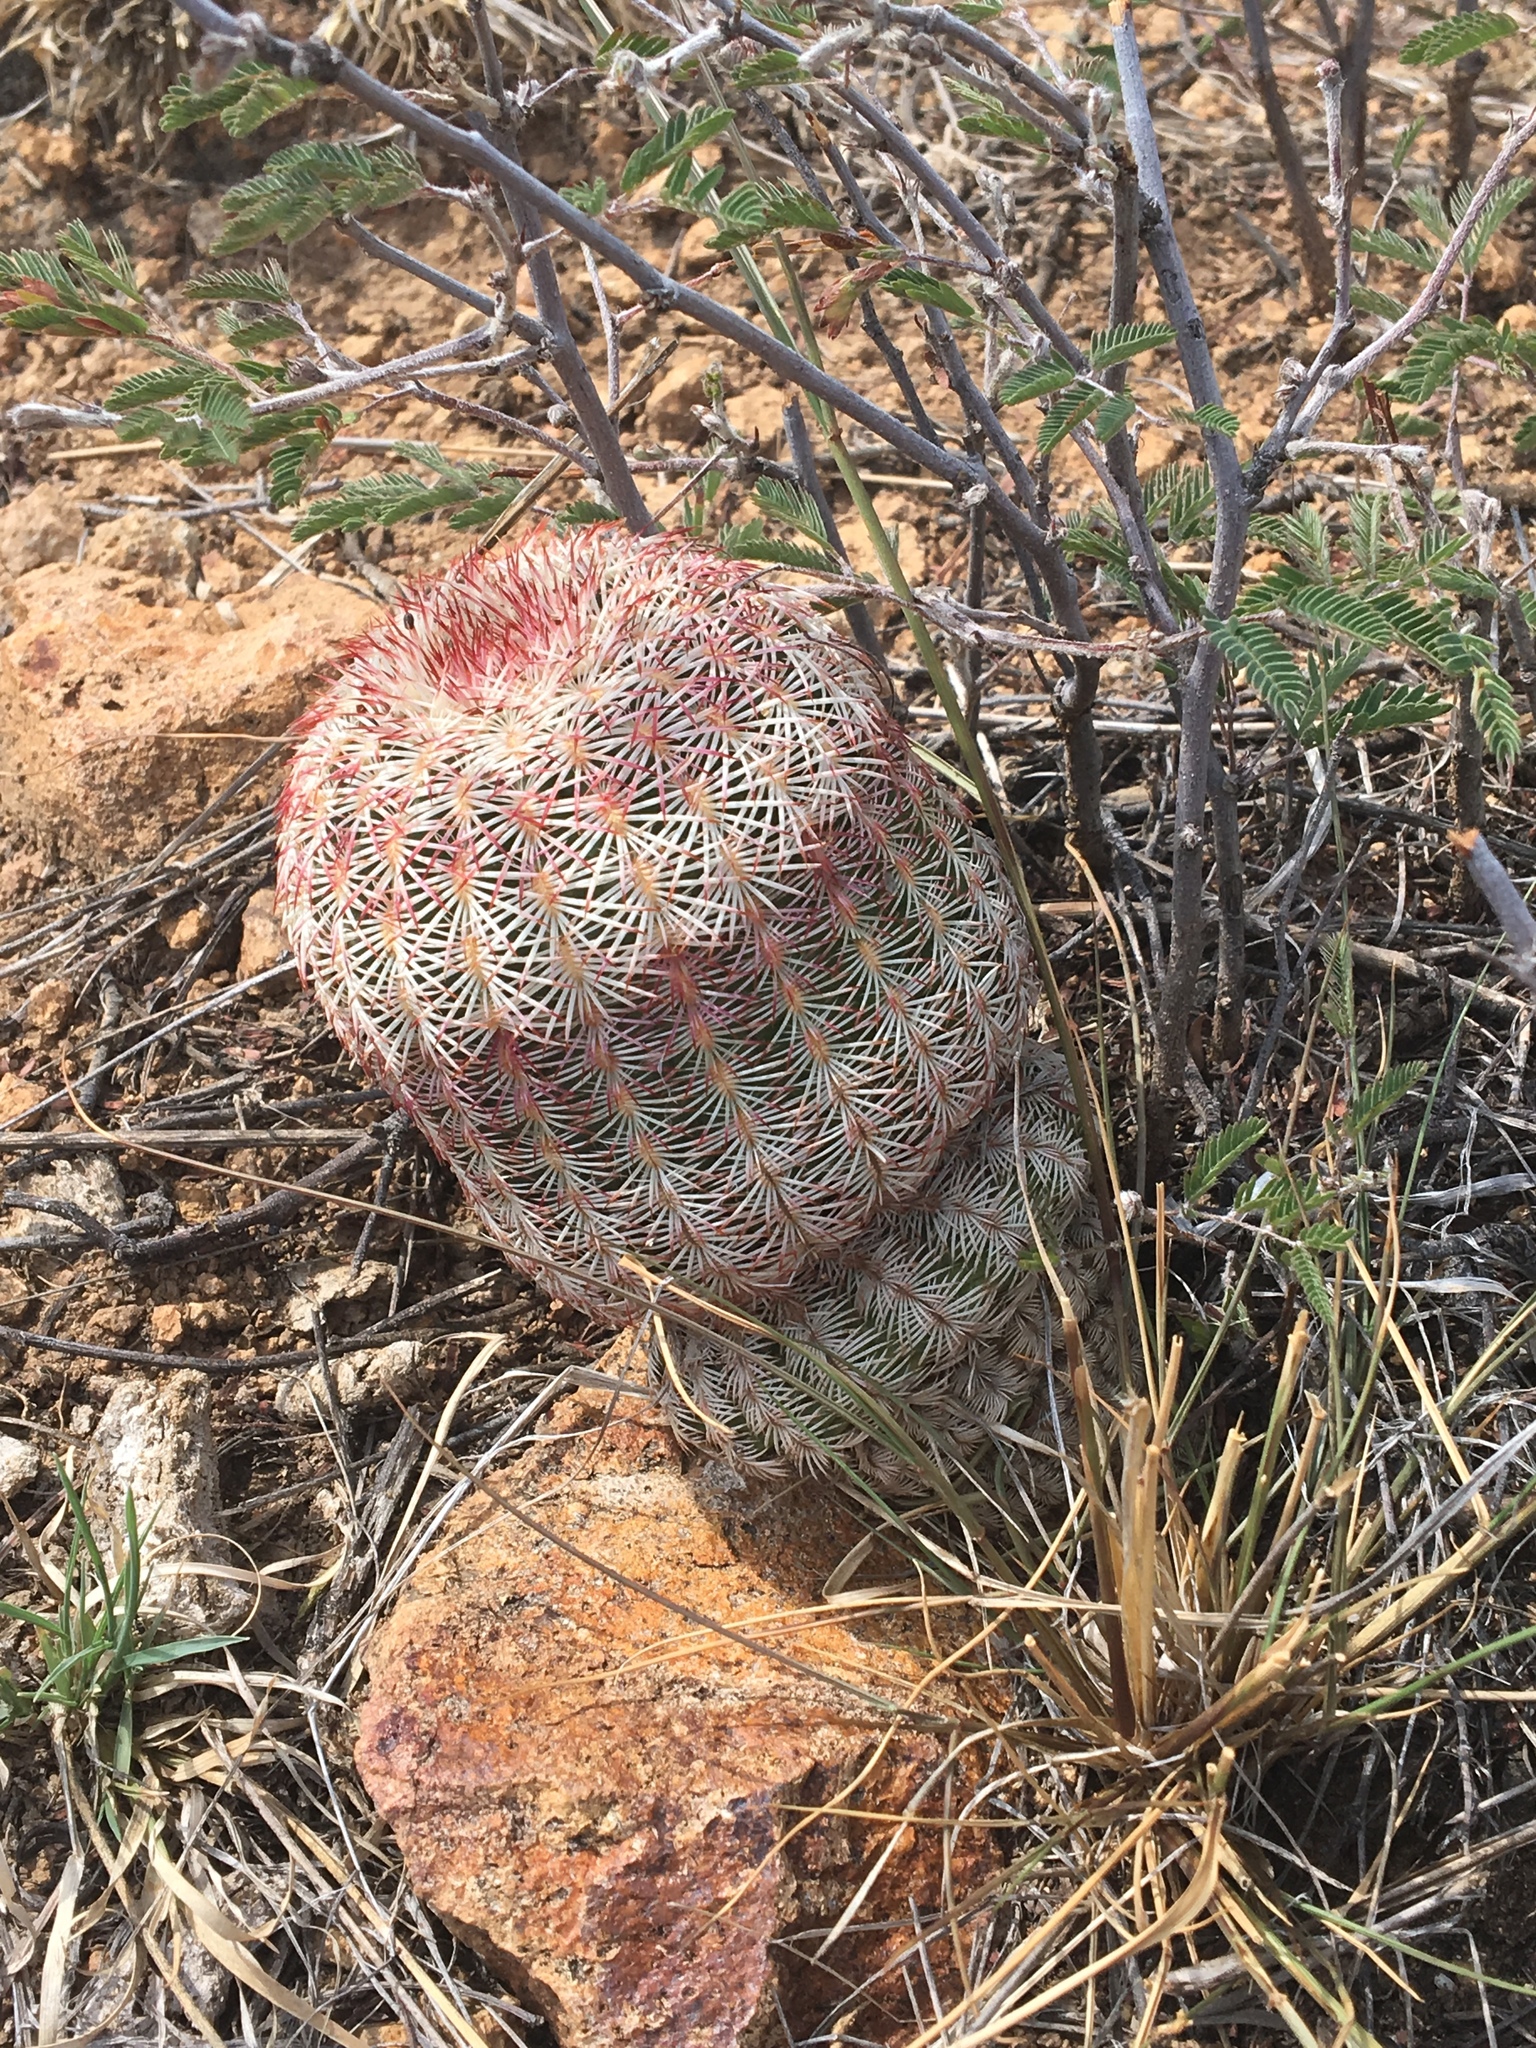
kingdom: Plantae
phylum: Tracheophyta
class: Magnoliopsida
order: Caryophyllales
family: Cactaceae
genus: Echinocereus
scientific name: Echinocereus rigidissimus
